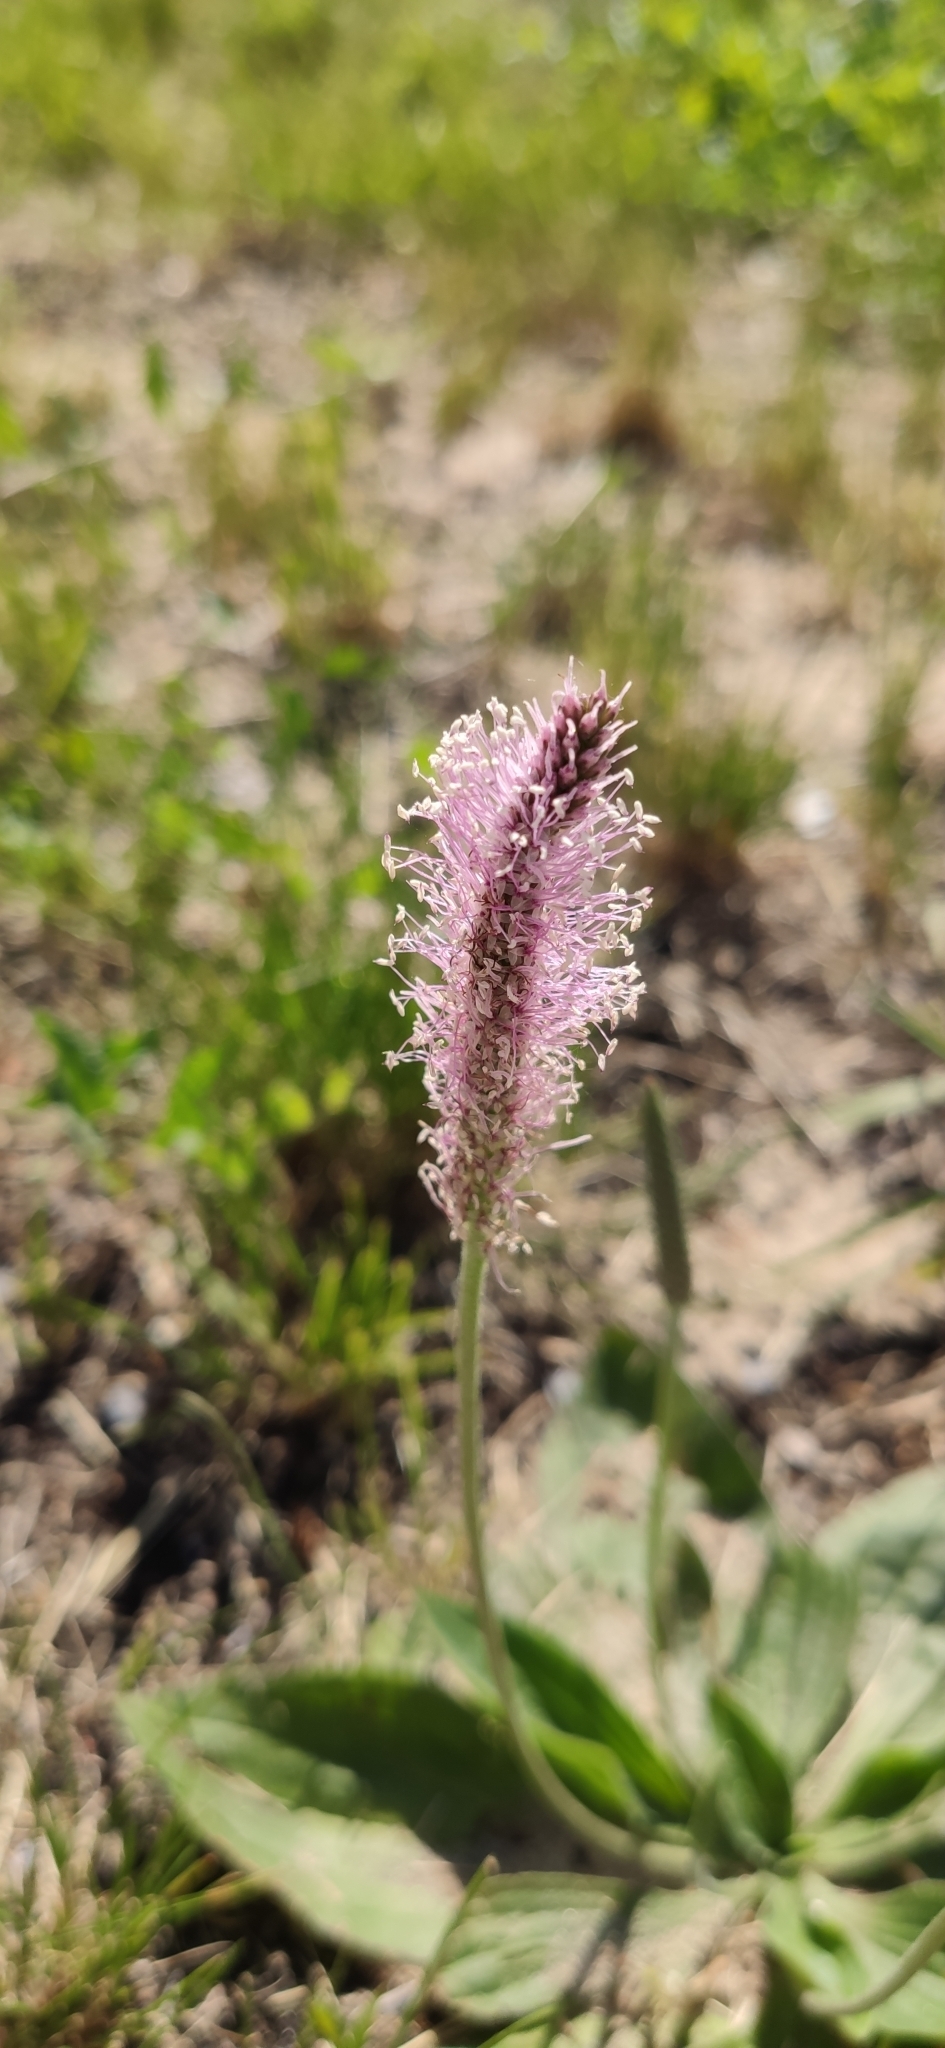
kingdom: Plantae
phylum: Tracheophyta
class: Magnoliopsida
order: Lamiales
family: Plantaginaceae
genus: Plantago
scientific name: Plantago media
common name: Hoary plantain
